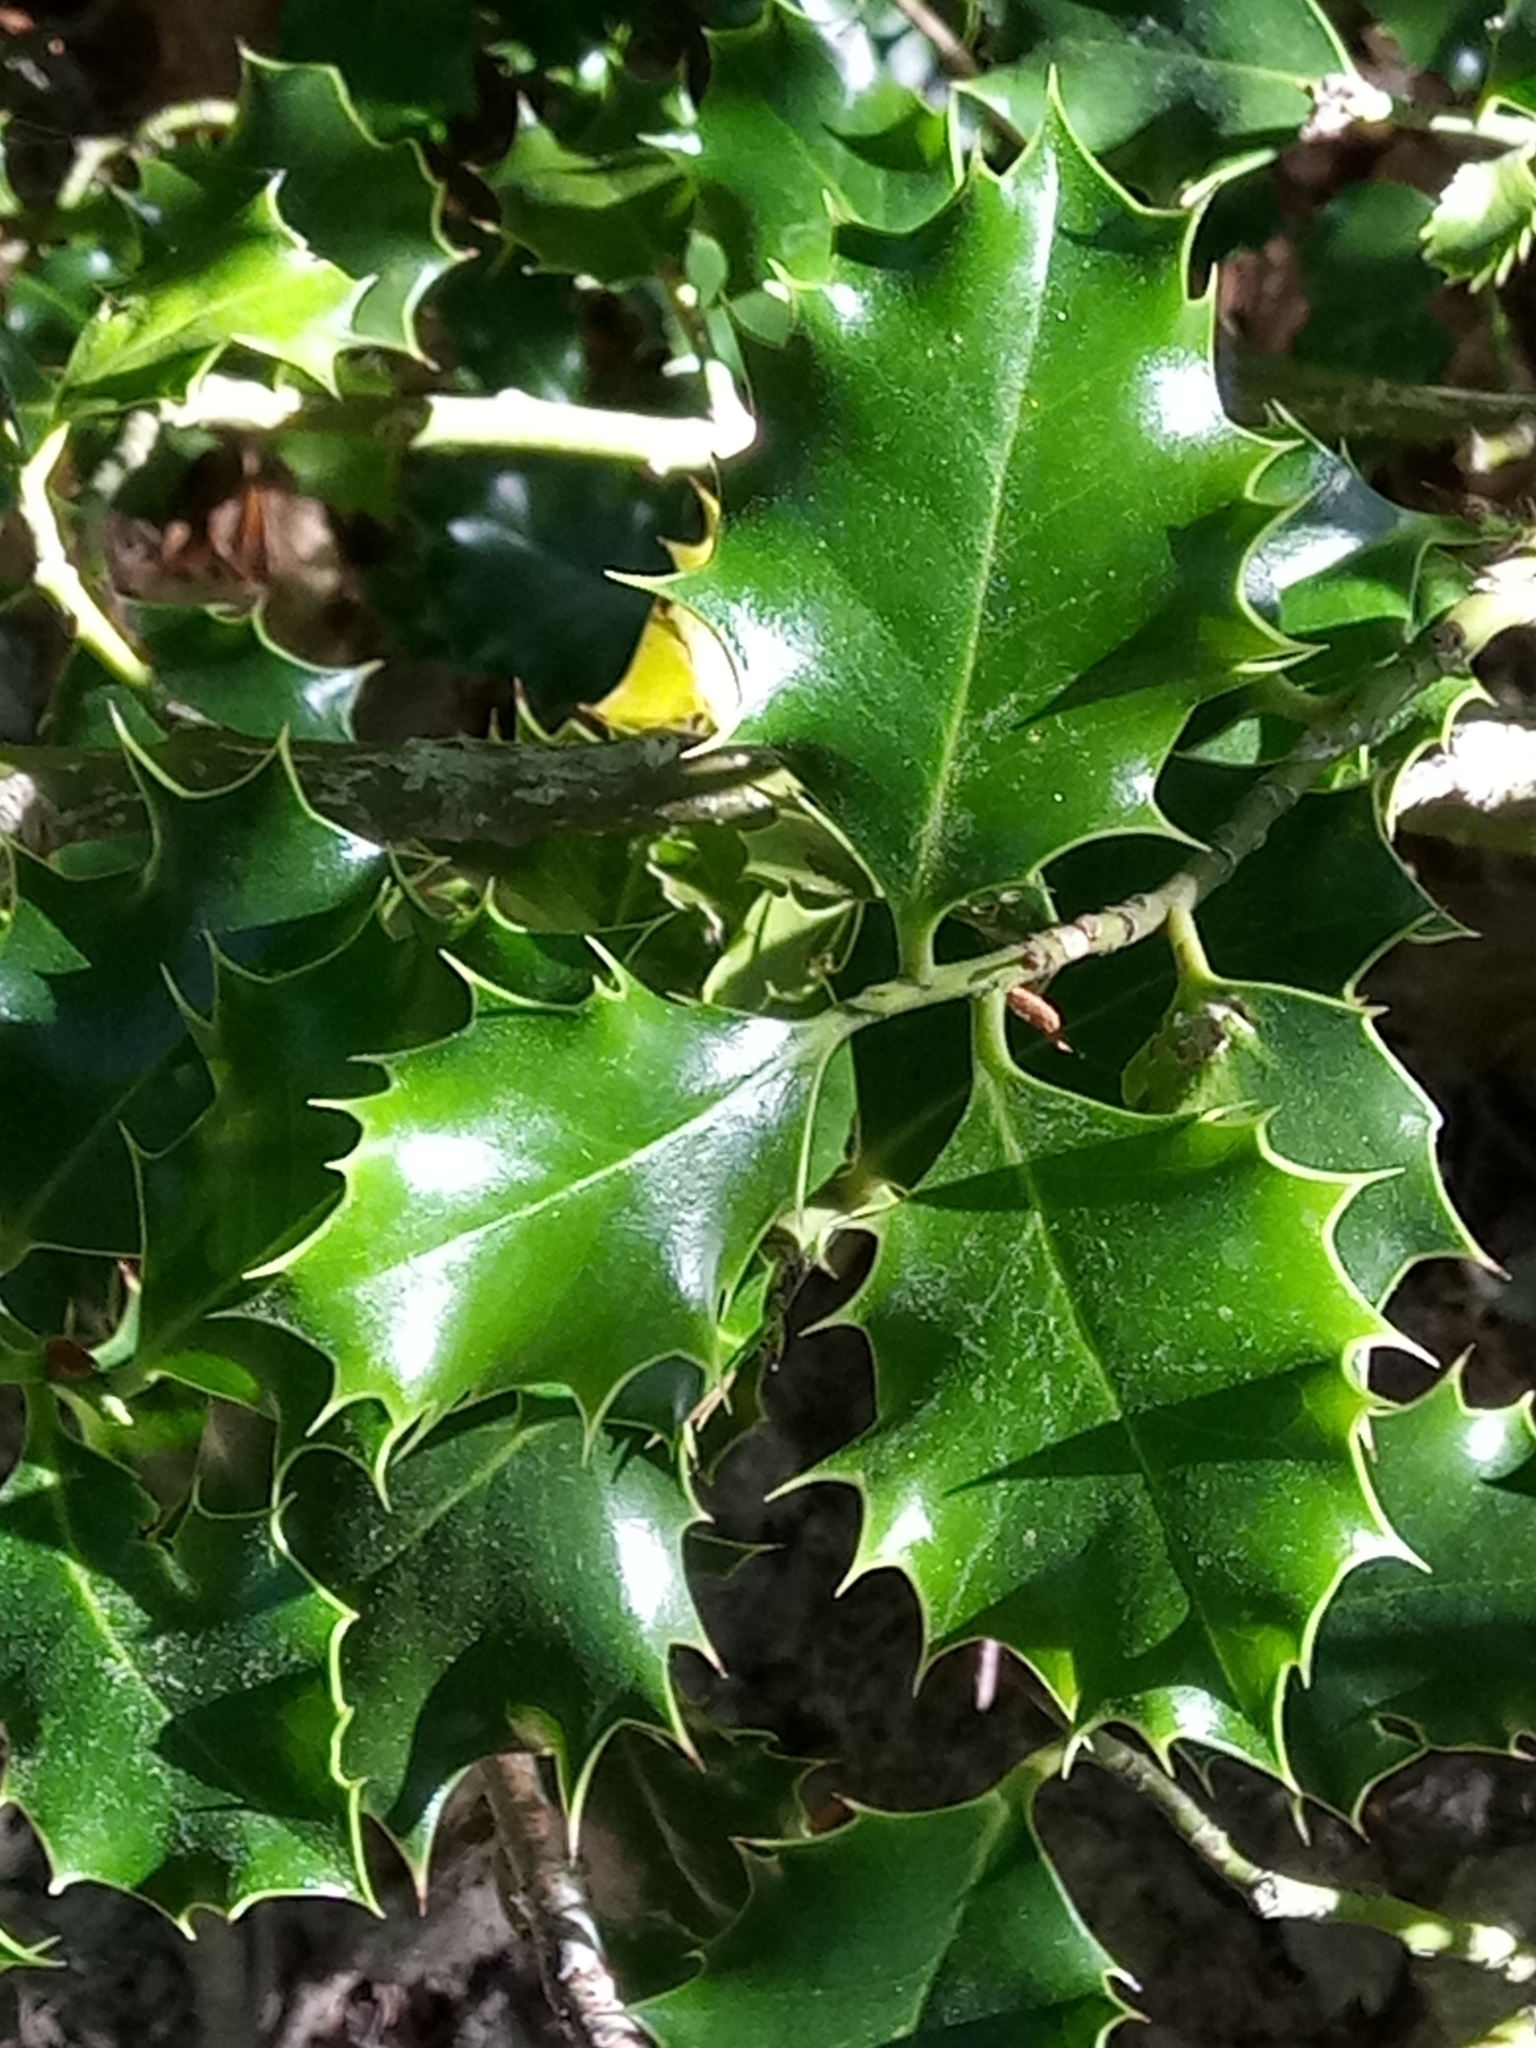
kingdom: Plantae
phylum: Tracheophyta
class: Magnoliopsida
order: Aquifoliales
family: Aquifoliaceae
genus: Ilex
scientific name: Ilex aquifolium
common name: English holly
